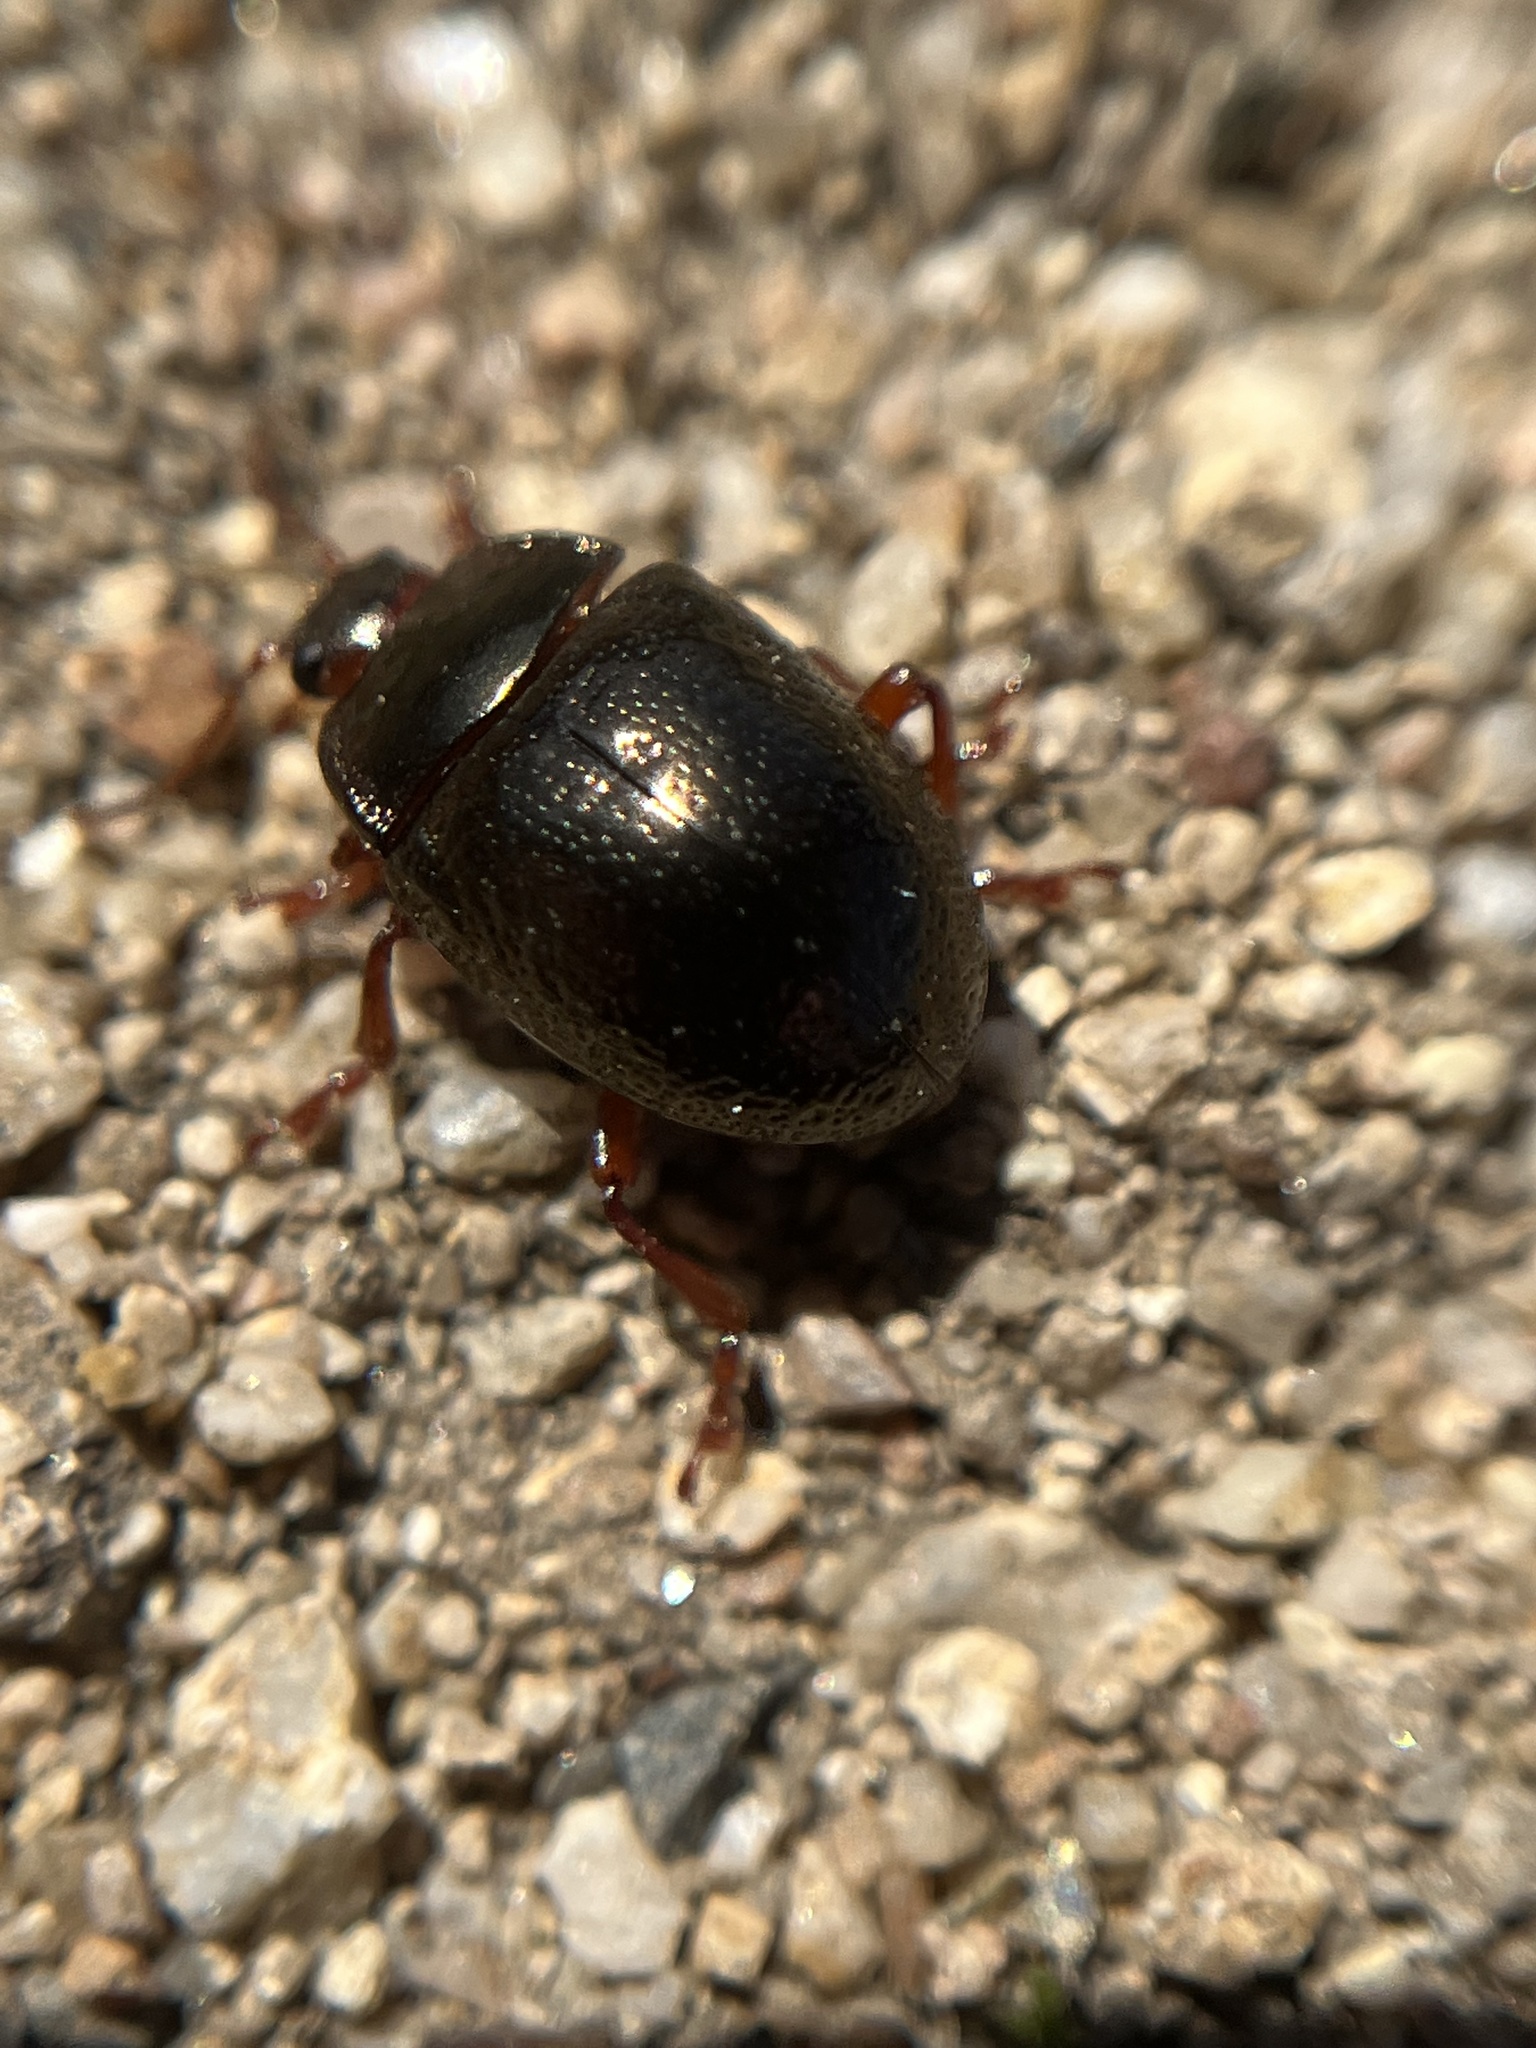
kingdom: Animalia
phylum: Arthropoda
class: Insecta
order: Coleoptera
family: Chrysomelidae
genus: Chrysolina
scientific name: Chrysolina bankii
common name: Leaf beetle
